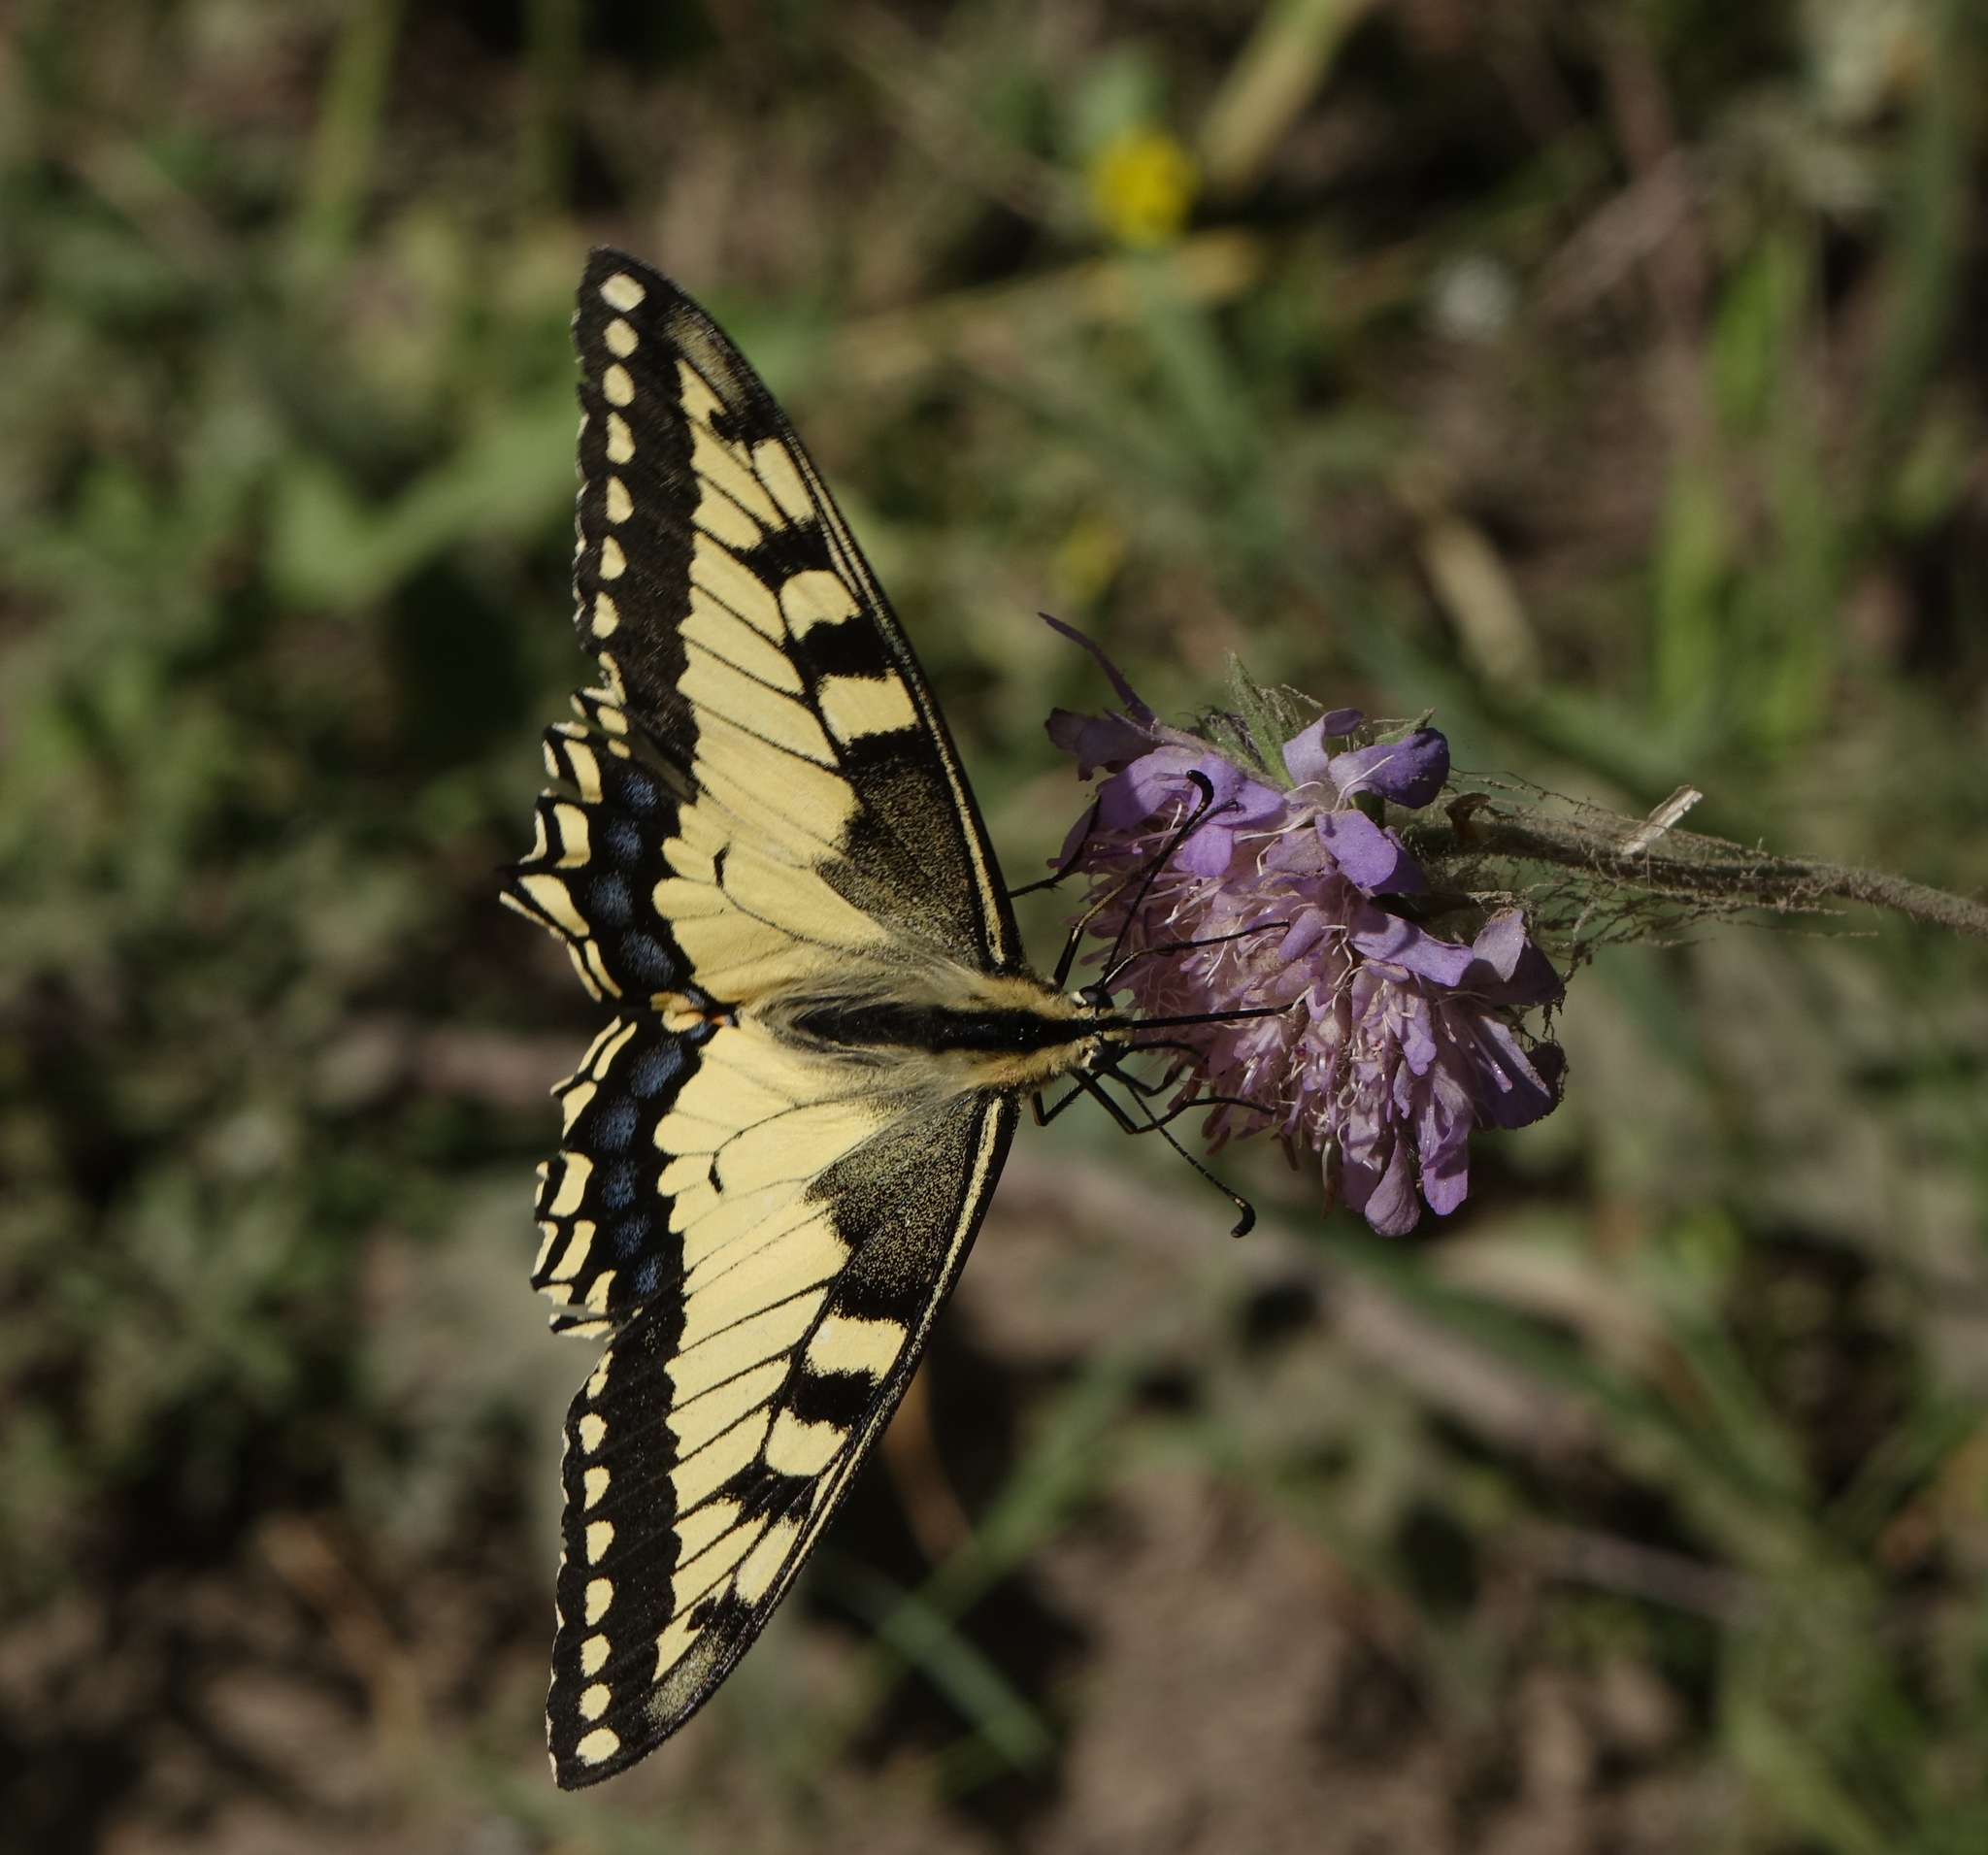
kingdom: Animalia
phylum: Arthropoda
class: Insecta
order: Lepidoptera
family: Papilionidae
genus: Papilio
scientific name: Papilio machaon
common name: Swallowtail
